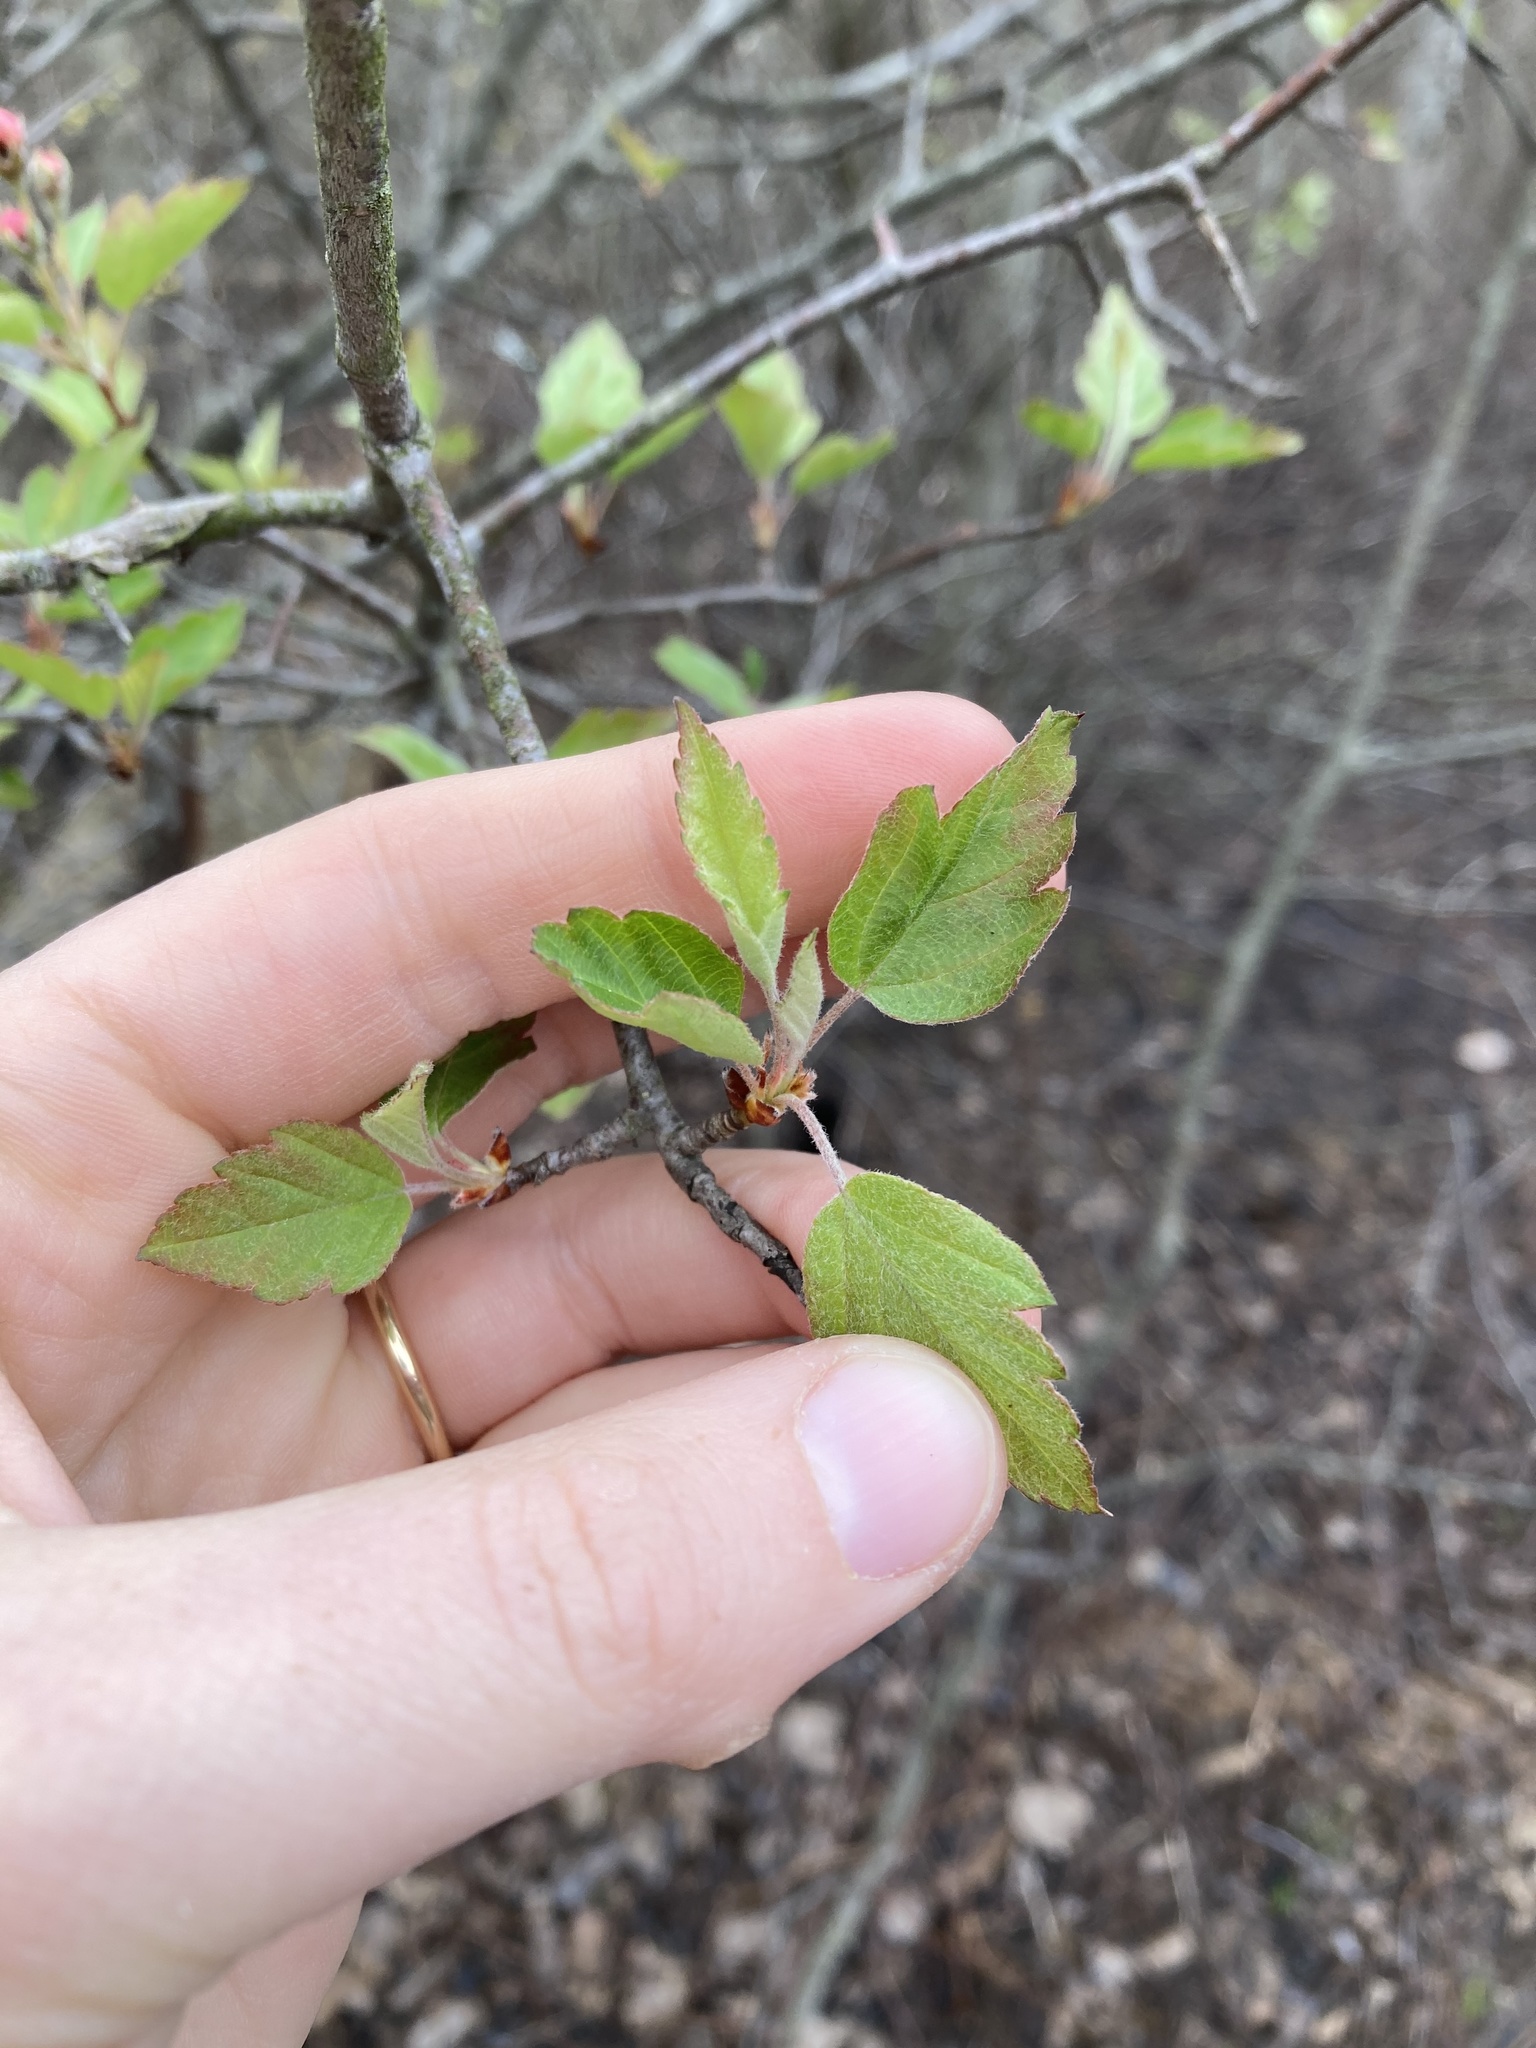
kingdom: Plantae
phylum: Tracheophyta
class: Magnoliopsida
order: Rosales
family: Rosaceae
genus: Malus
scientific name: Malus coronaria
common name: Sweet crab apple
